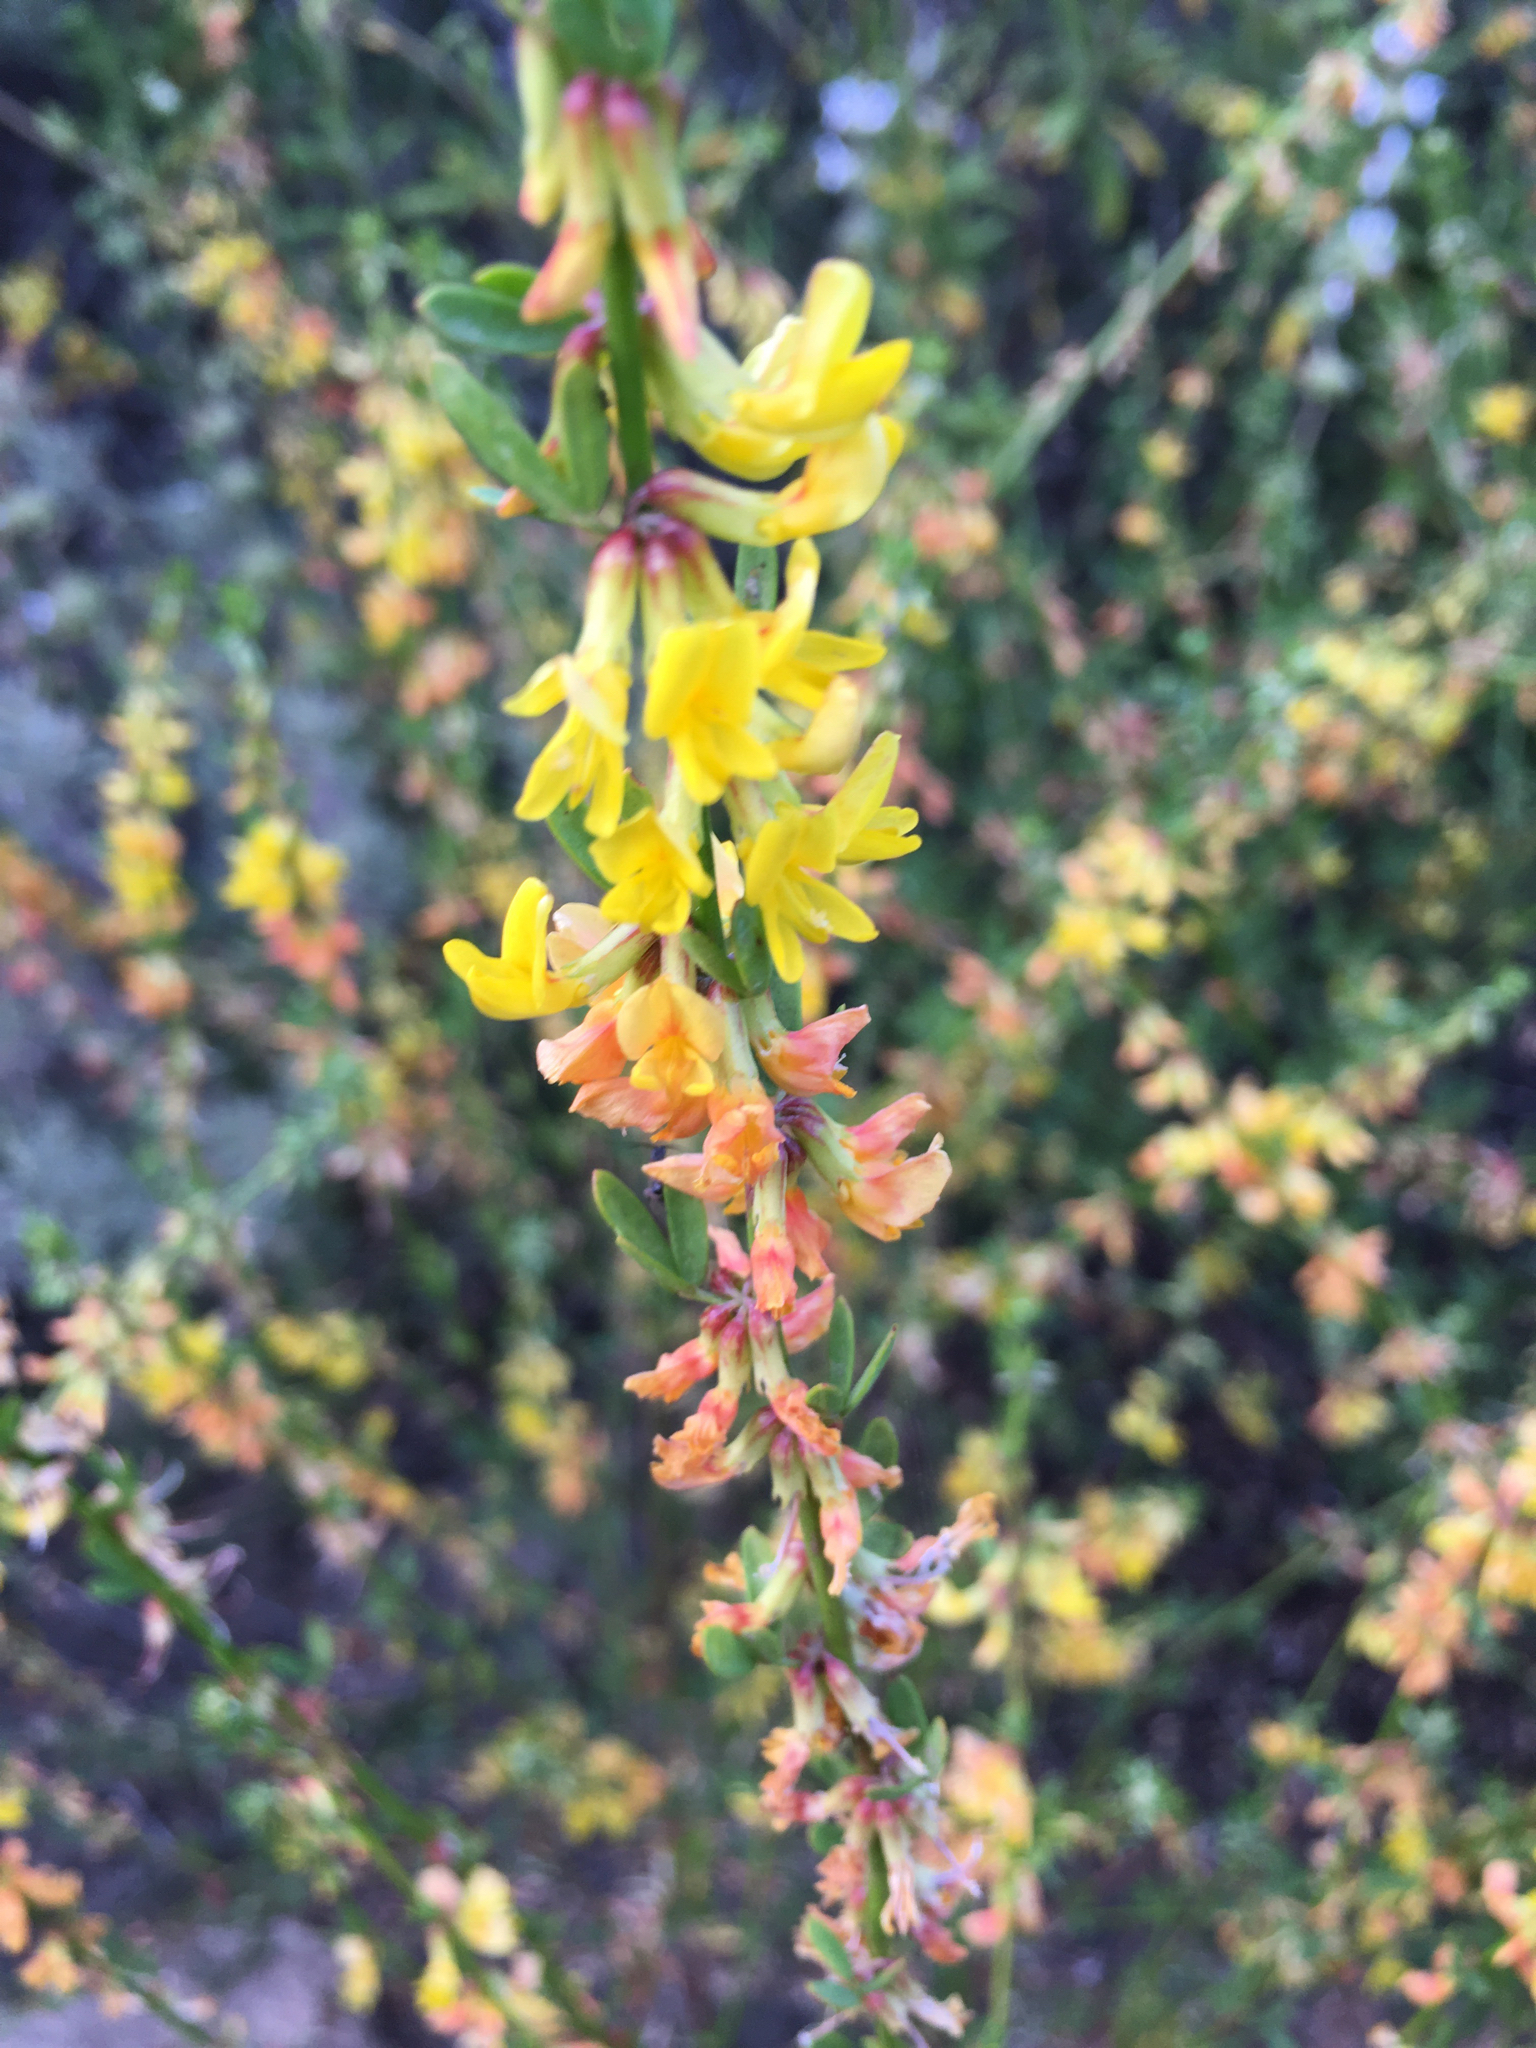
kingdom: Plantae
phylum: Tracheophyta
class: Magnoliopsida
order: Fabales
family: Fabaceae
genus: Acmispon
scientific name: Acmispon glaber
